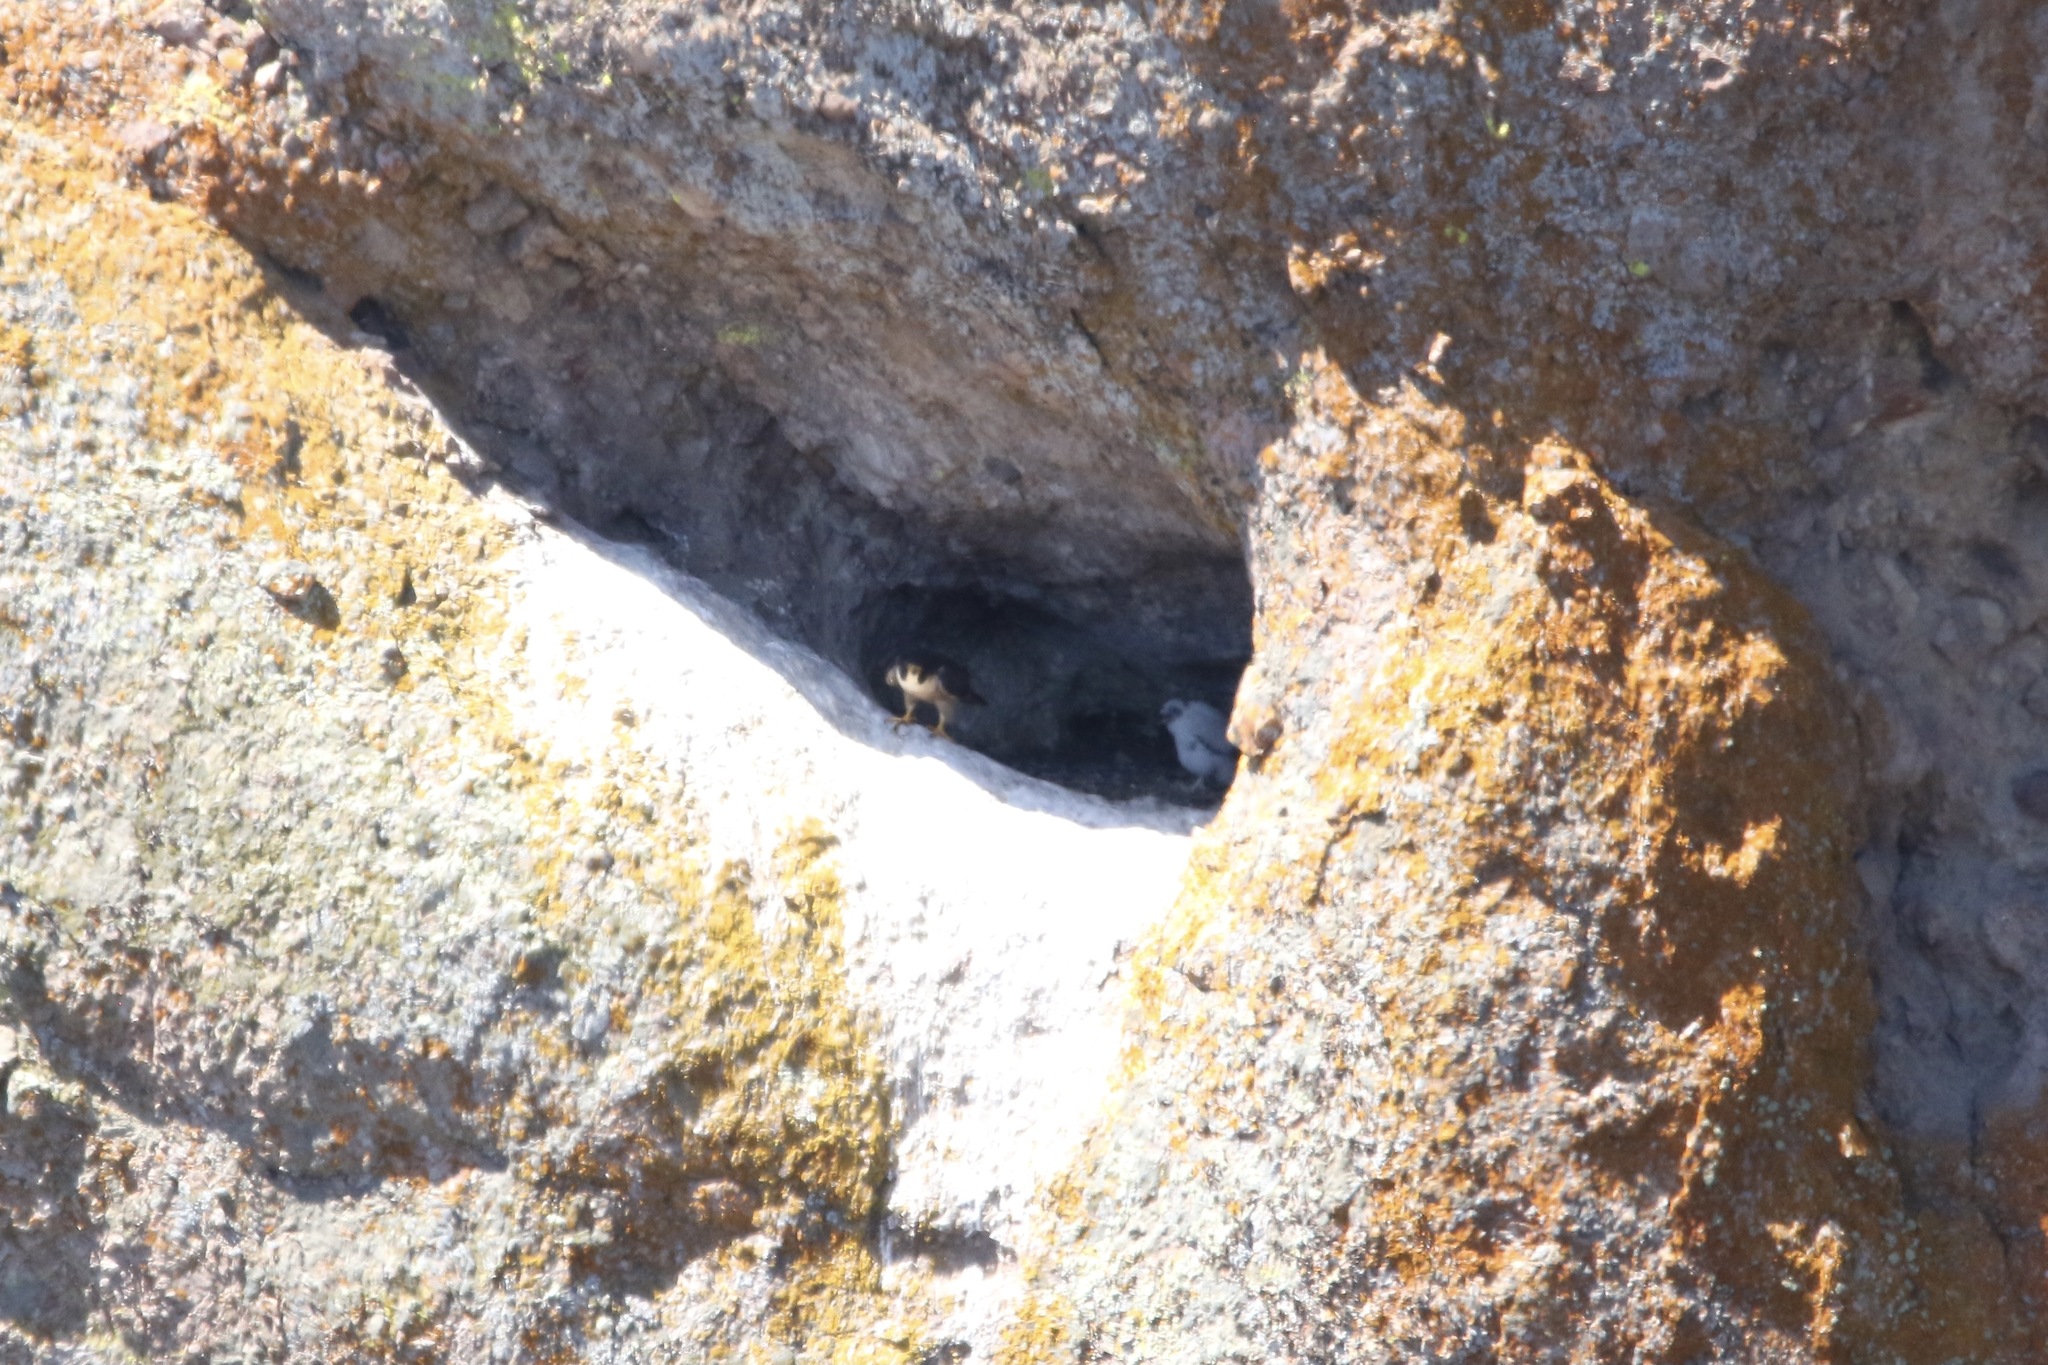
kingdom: Animalia
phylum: Chordata
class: Aves
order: Falconiformes
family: Falconidae
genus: Falco
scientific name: Falco peregrinus
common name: Peregrine falcon
